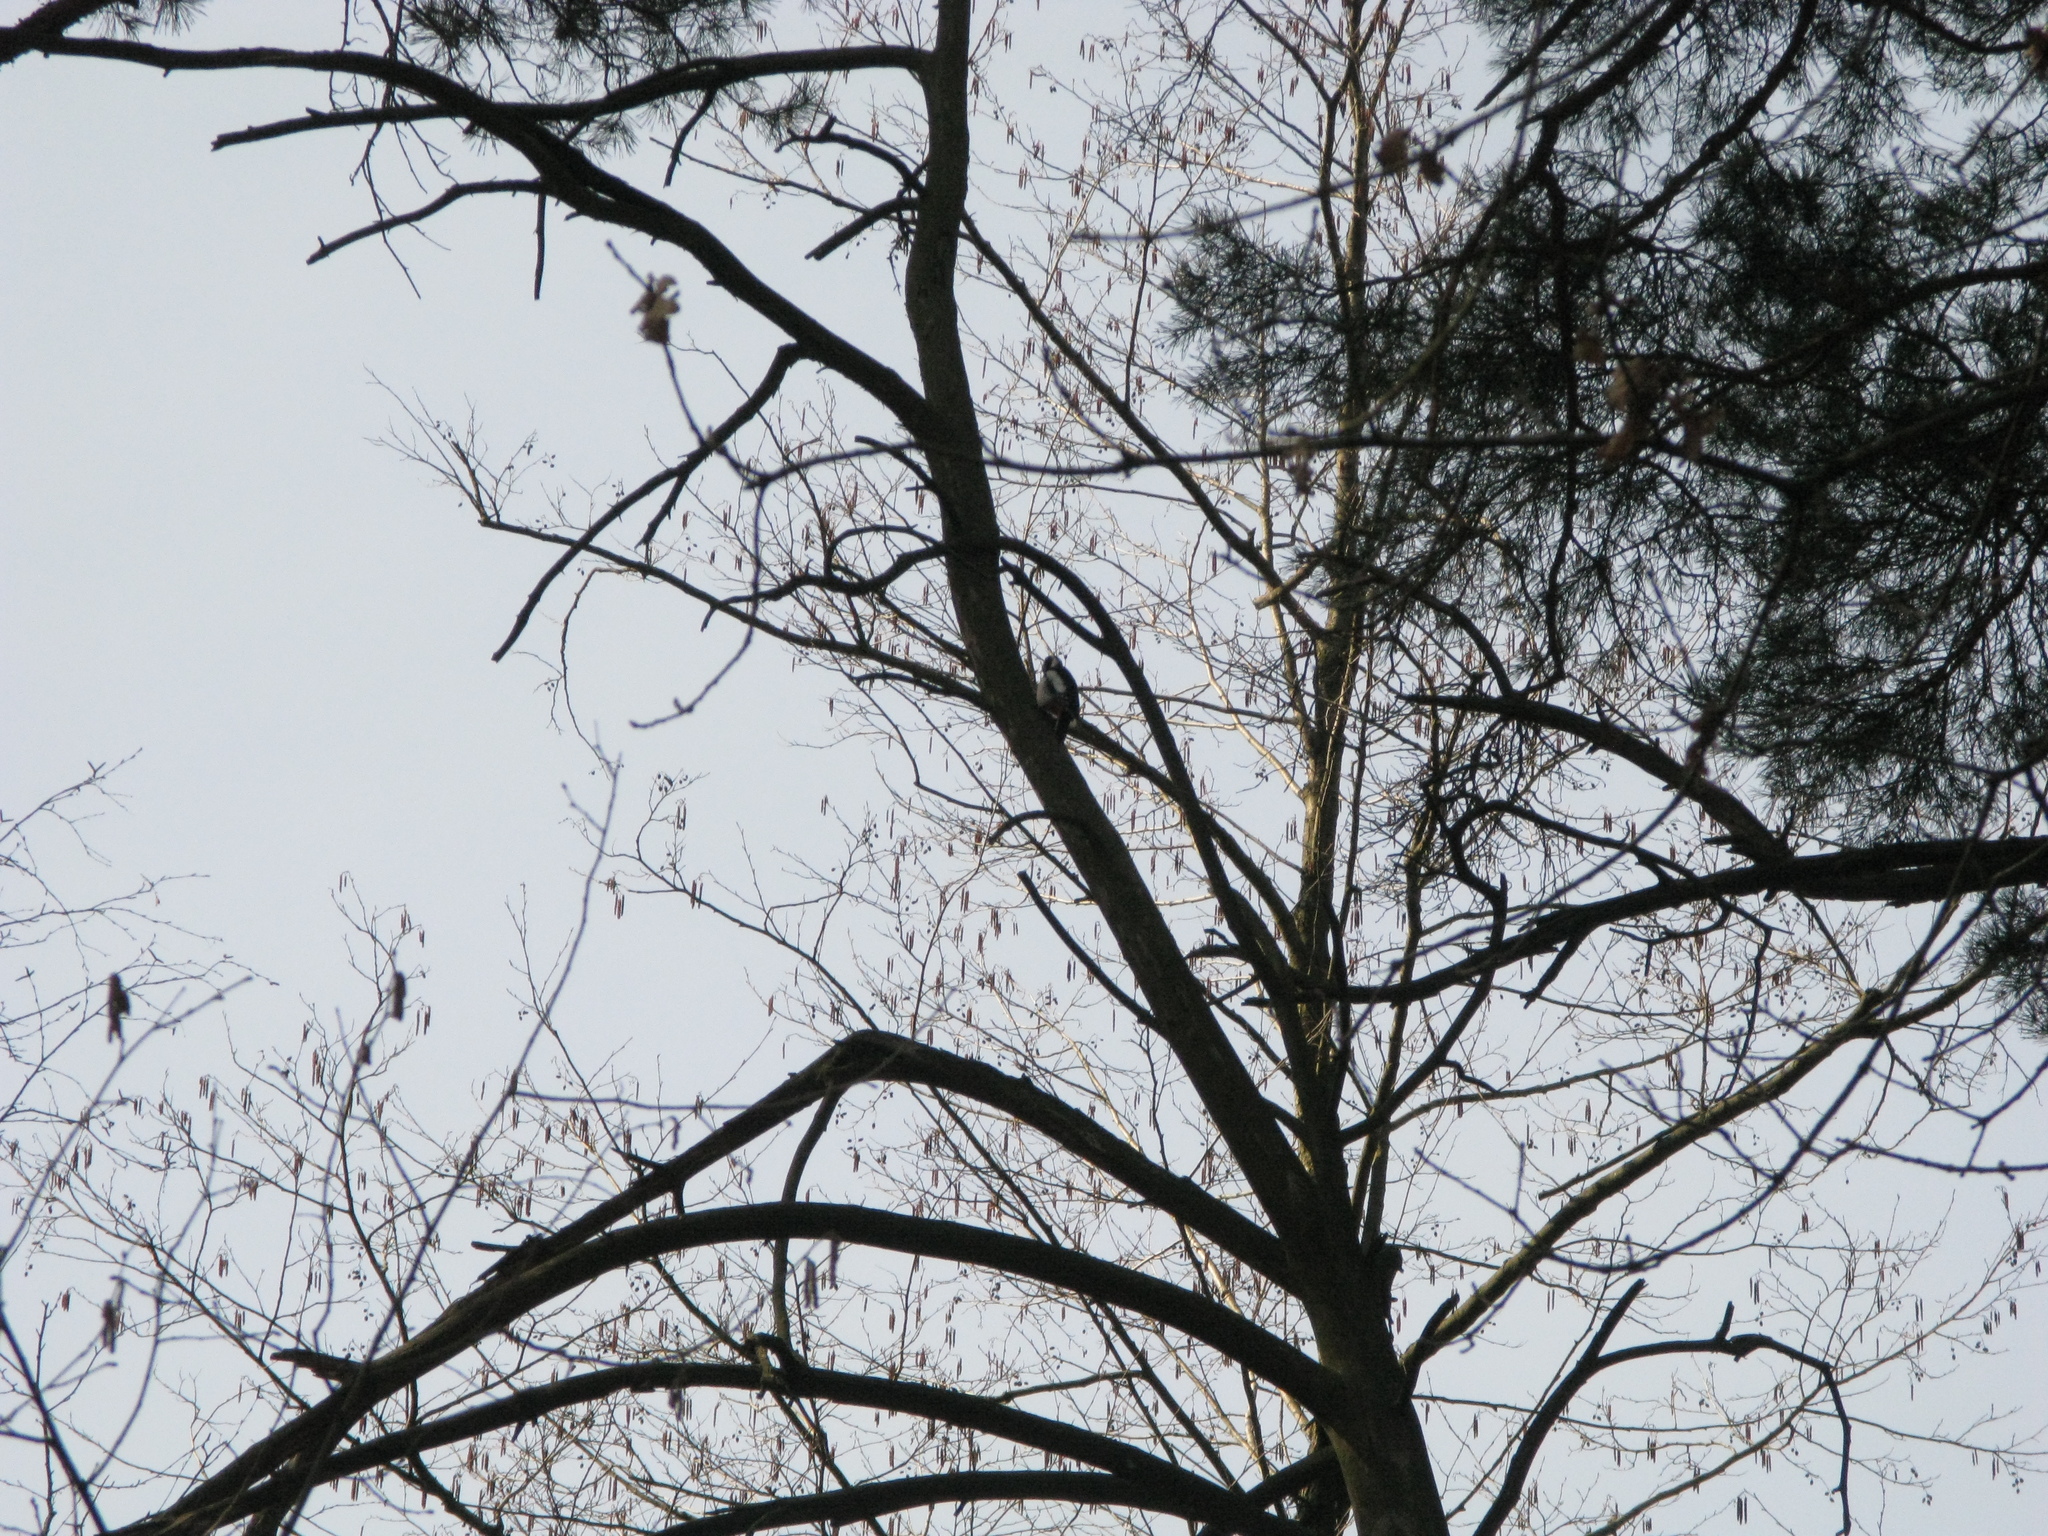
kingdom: Animalia
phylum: Chordata
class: Aves
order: Piciformes
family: Picidae
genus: Dendrocopos
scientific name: Dendrocopos major
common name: Great spotted woodpecker
